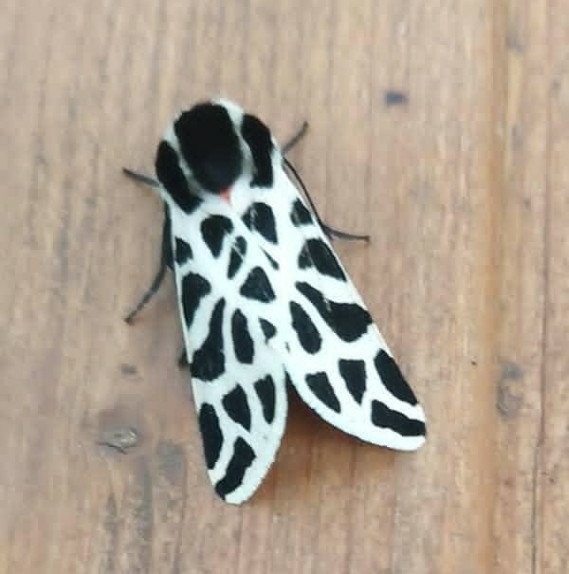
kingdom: Animalia
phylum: Arthropoda
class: Insecta
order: Lepidoptera
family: Erebidae
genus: Cymbalophora
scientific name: Cymbalophora pudica
